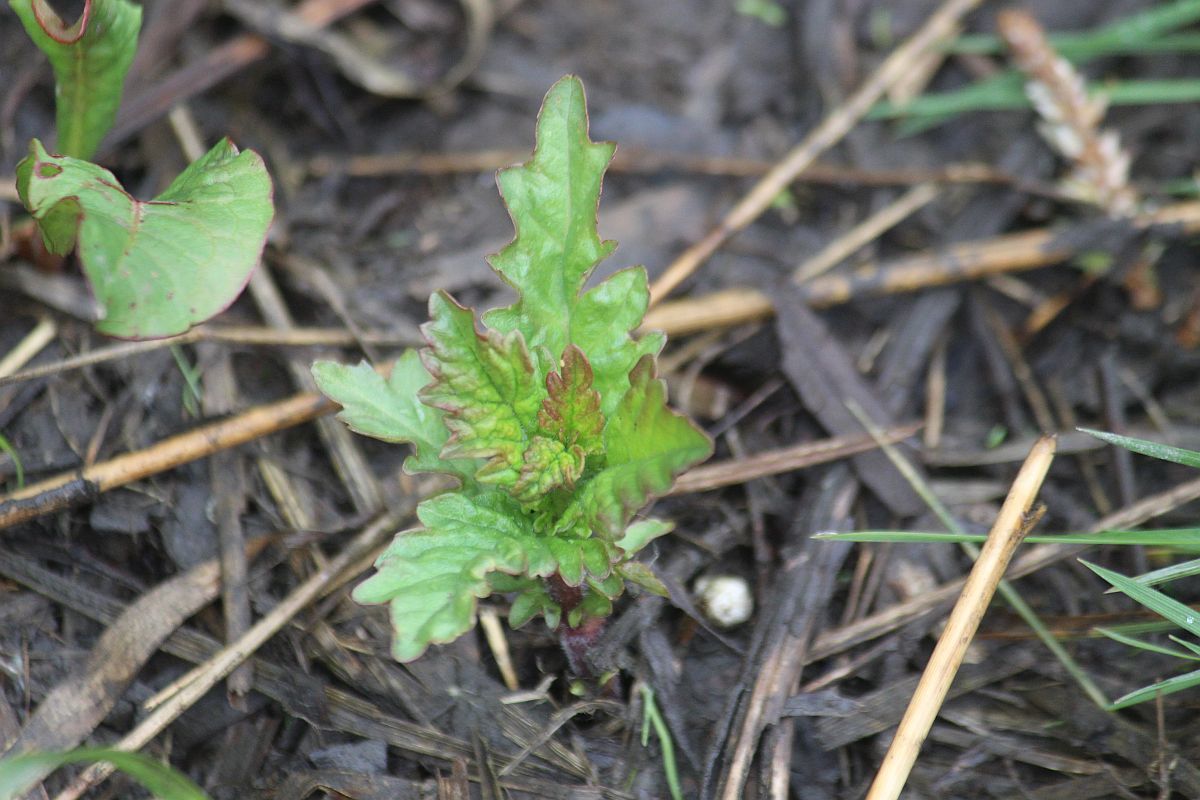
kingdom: Plantae
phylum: Tracheophyta
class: Magnoliopsida
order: Lamiales
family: Lamiaceae
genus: Lycopus
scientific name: Lycopus europaeus
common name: European bugleweed
